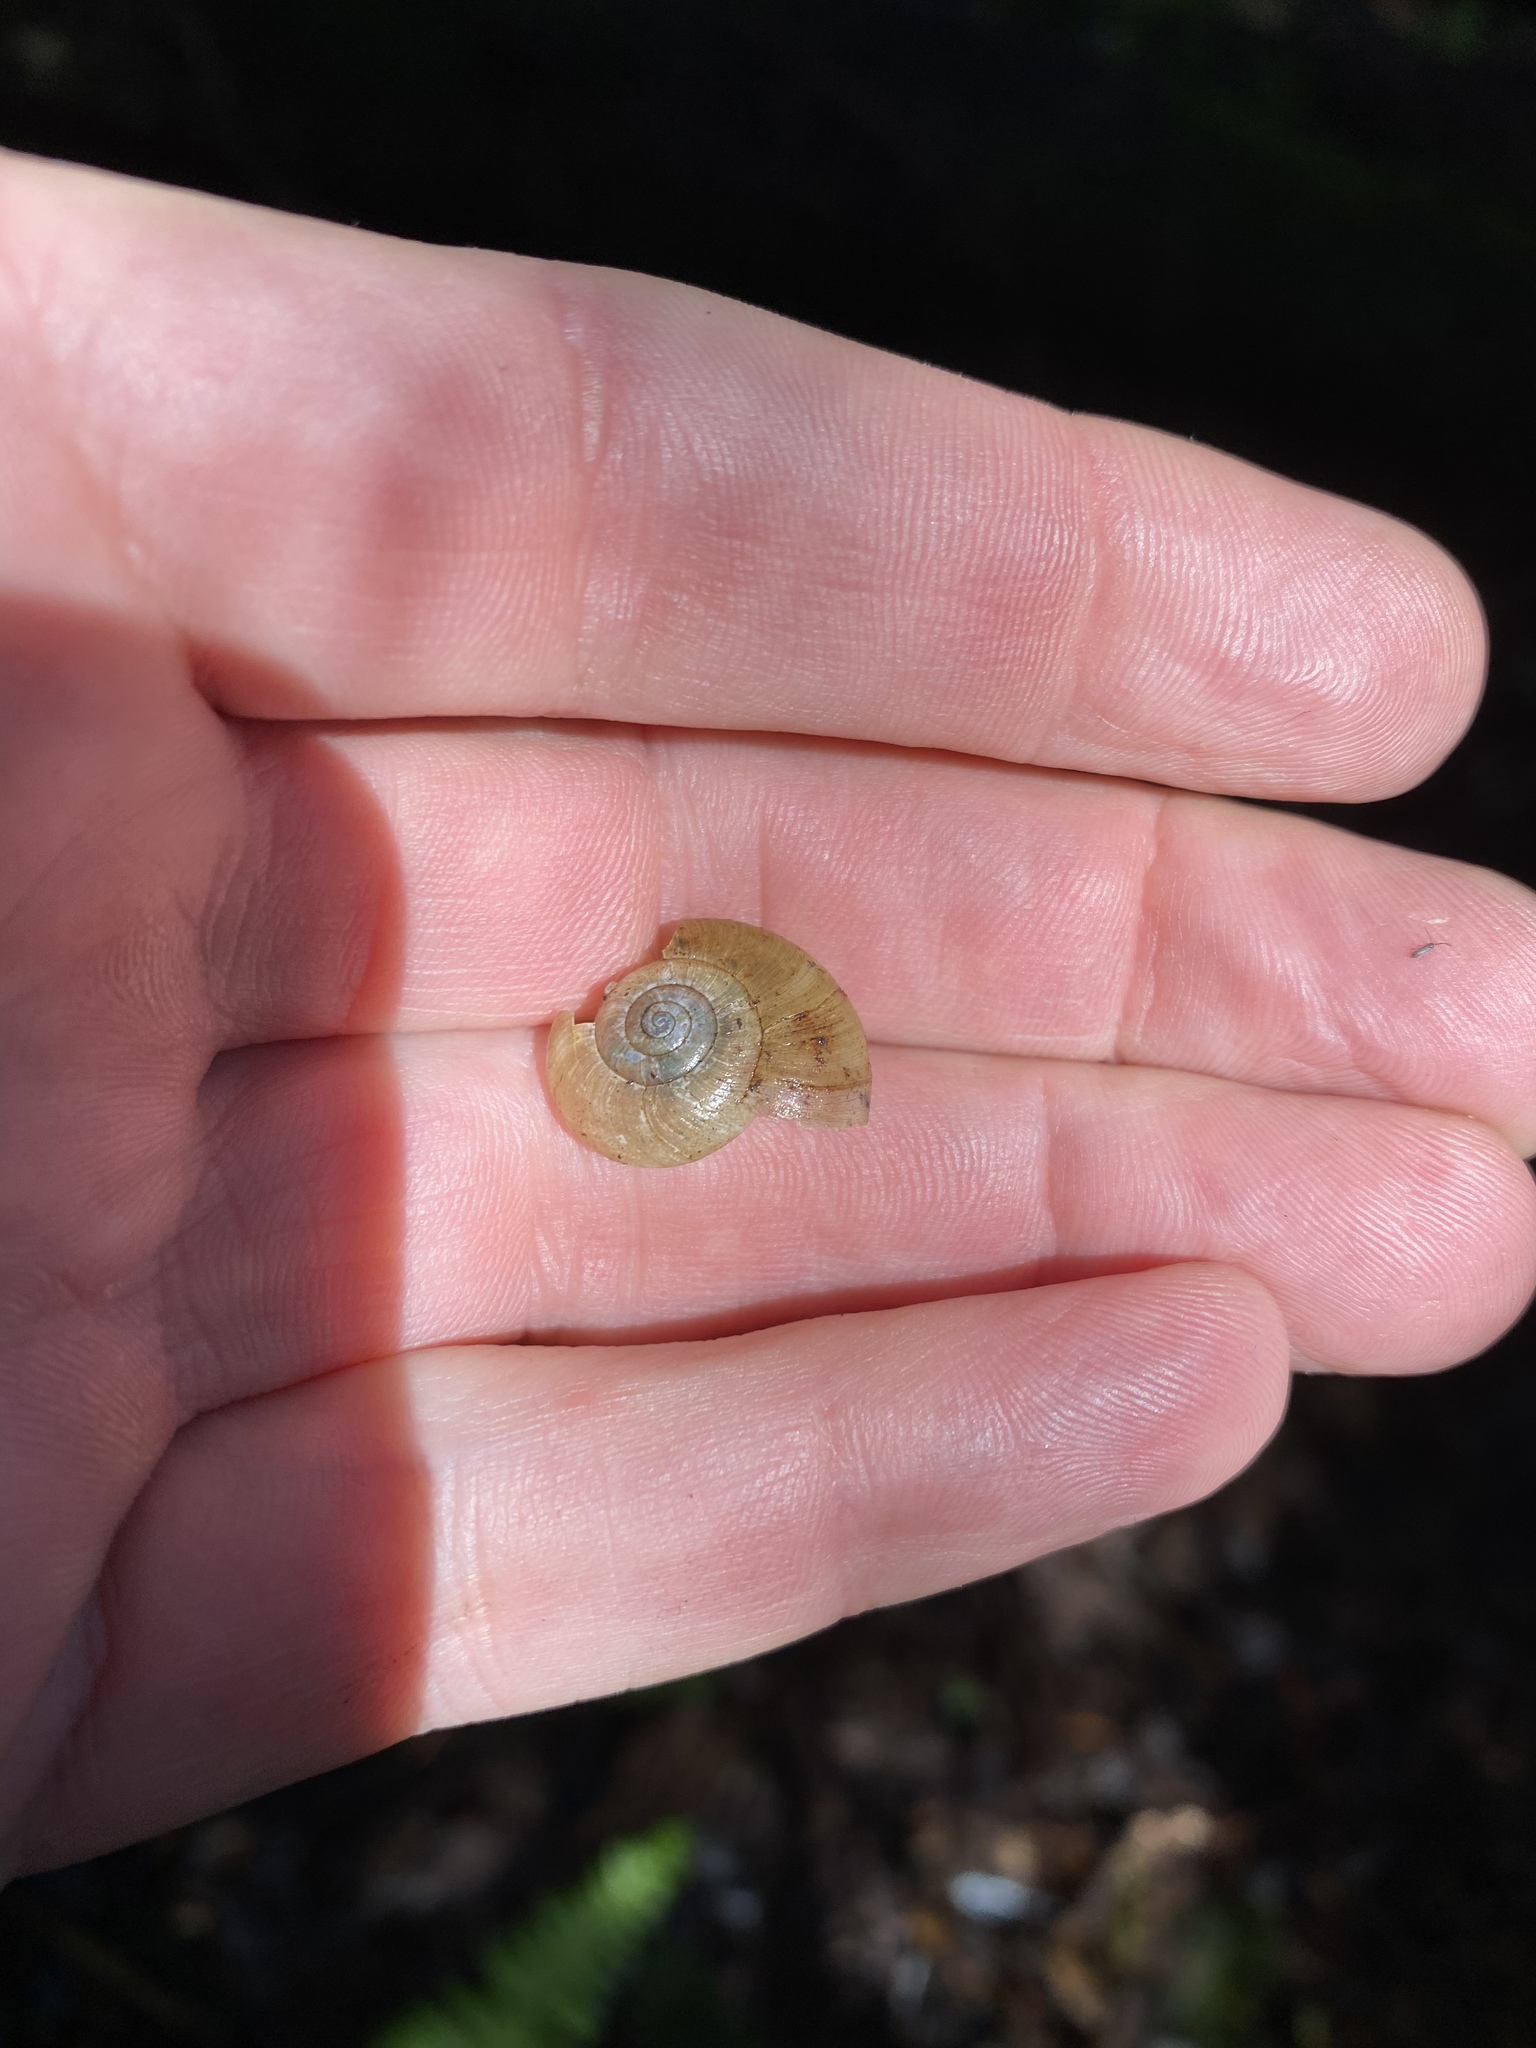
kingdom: Animalia
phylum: Mollusca
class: Gastropoda
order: Stylommatophora
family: Haplotrematidae
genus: Haplotrema
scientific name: Haplotrema minimum
